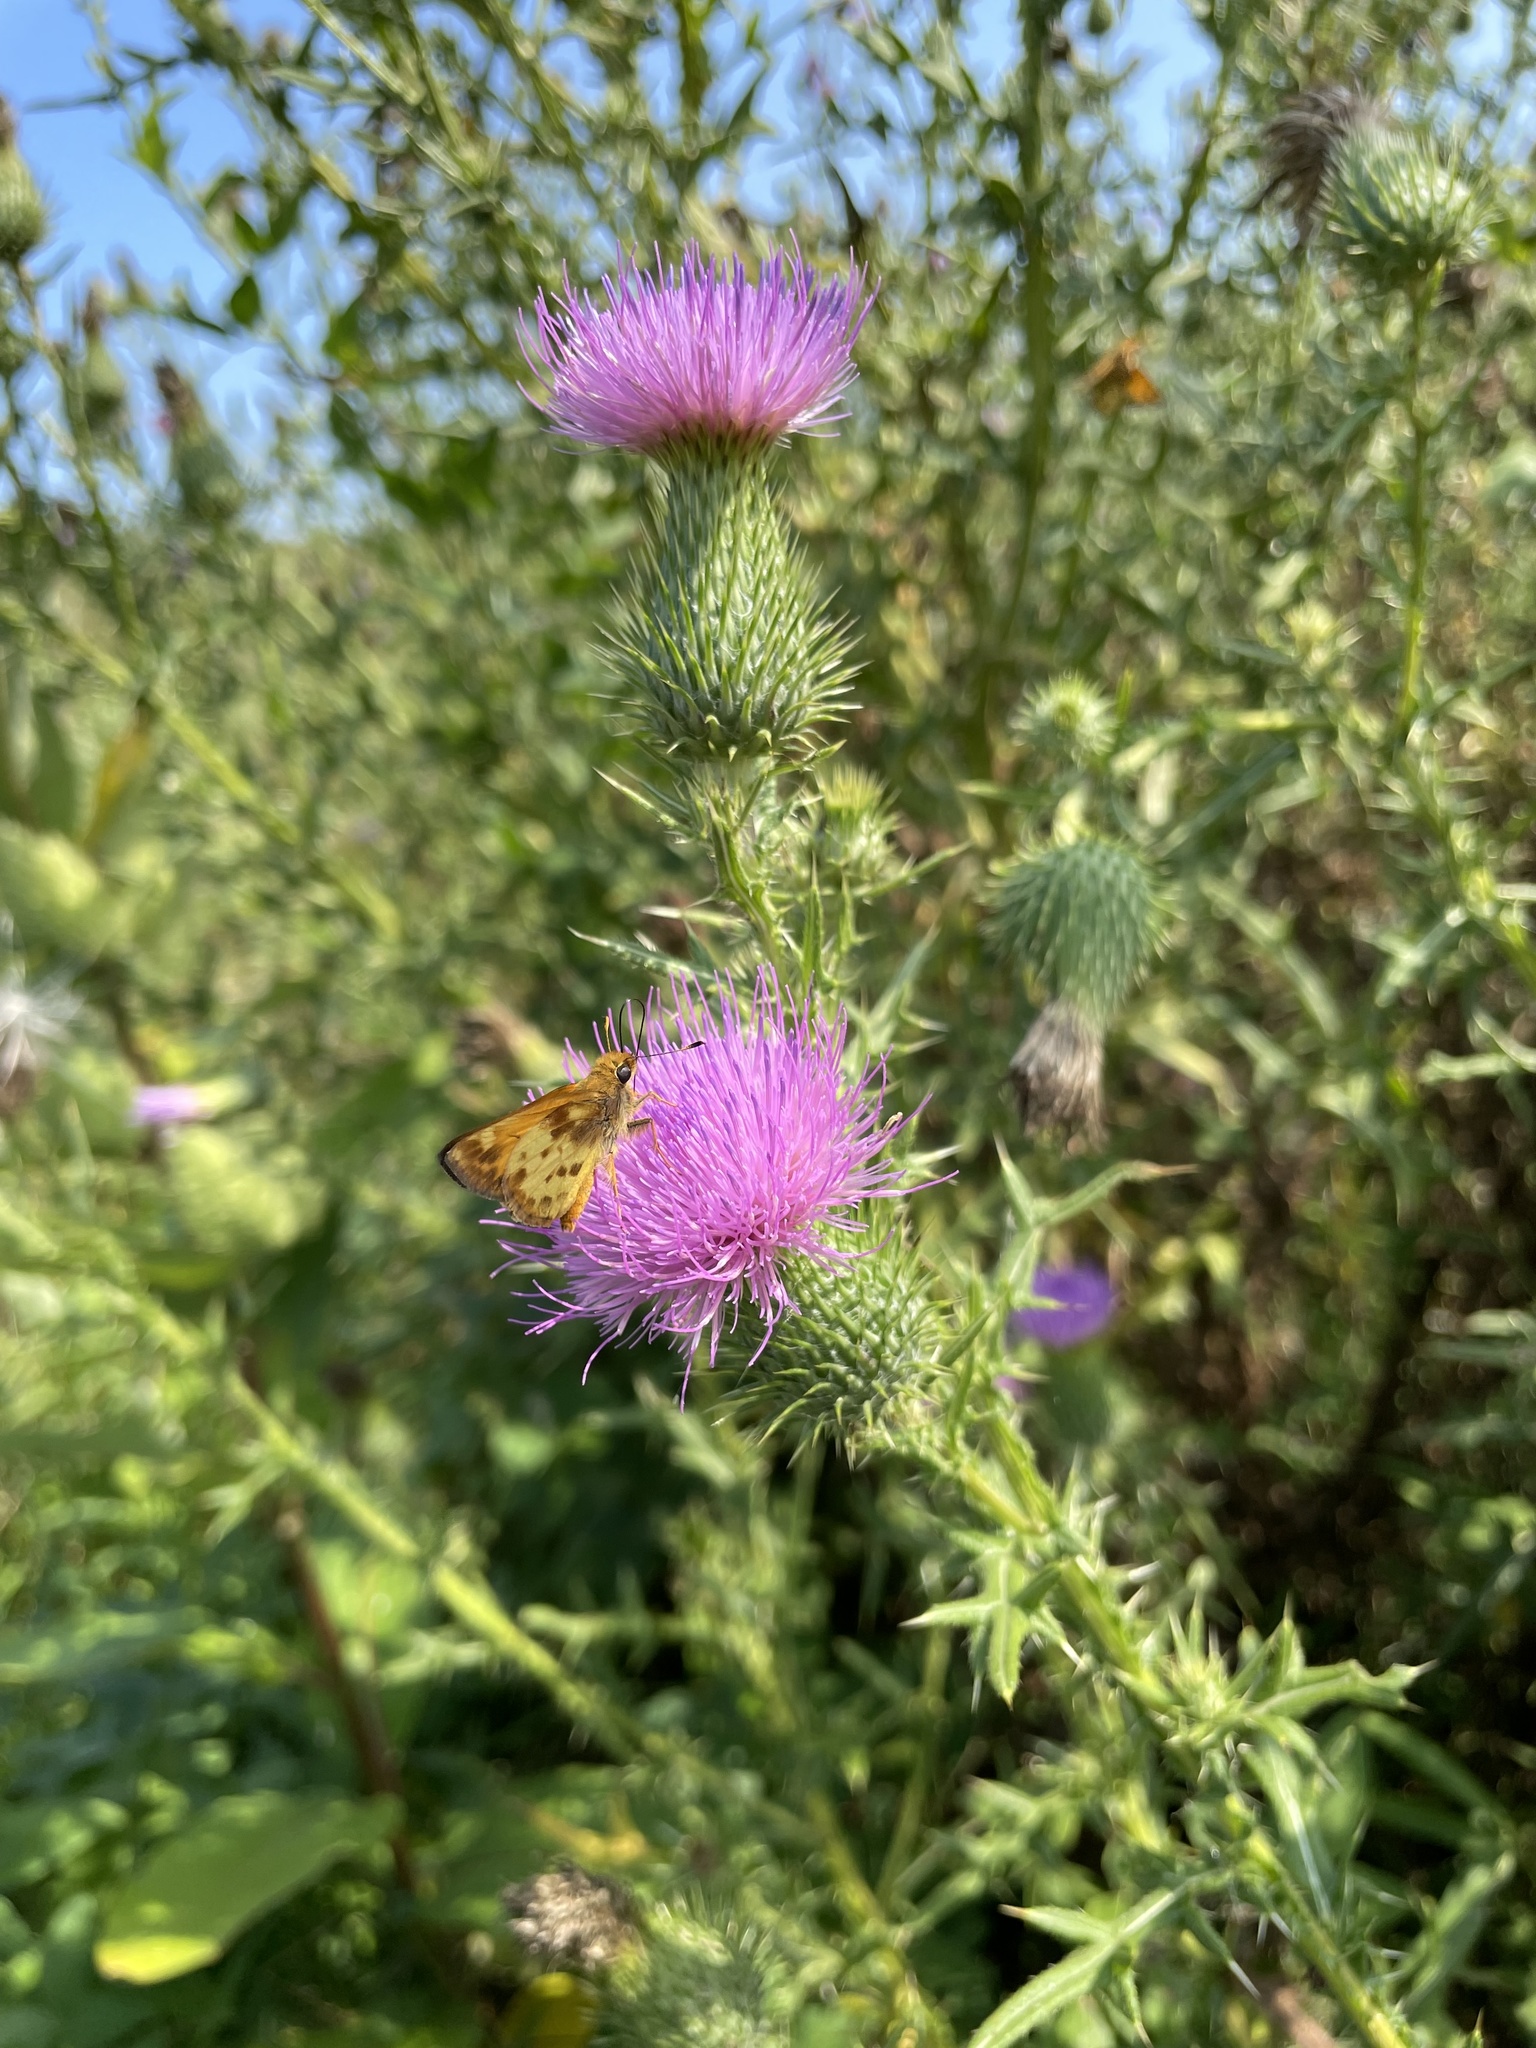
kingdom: Animalia
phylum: Arthropoda
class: Insecta
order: Lepidoptera
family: Hesperiidae
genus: Lon
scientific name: Lon zabulon
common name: Zabulon skipper
